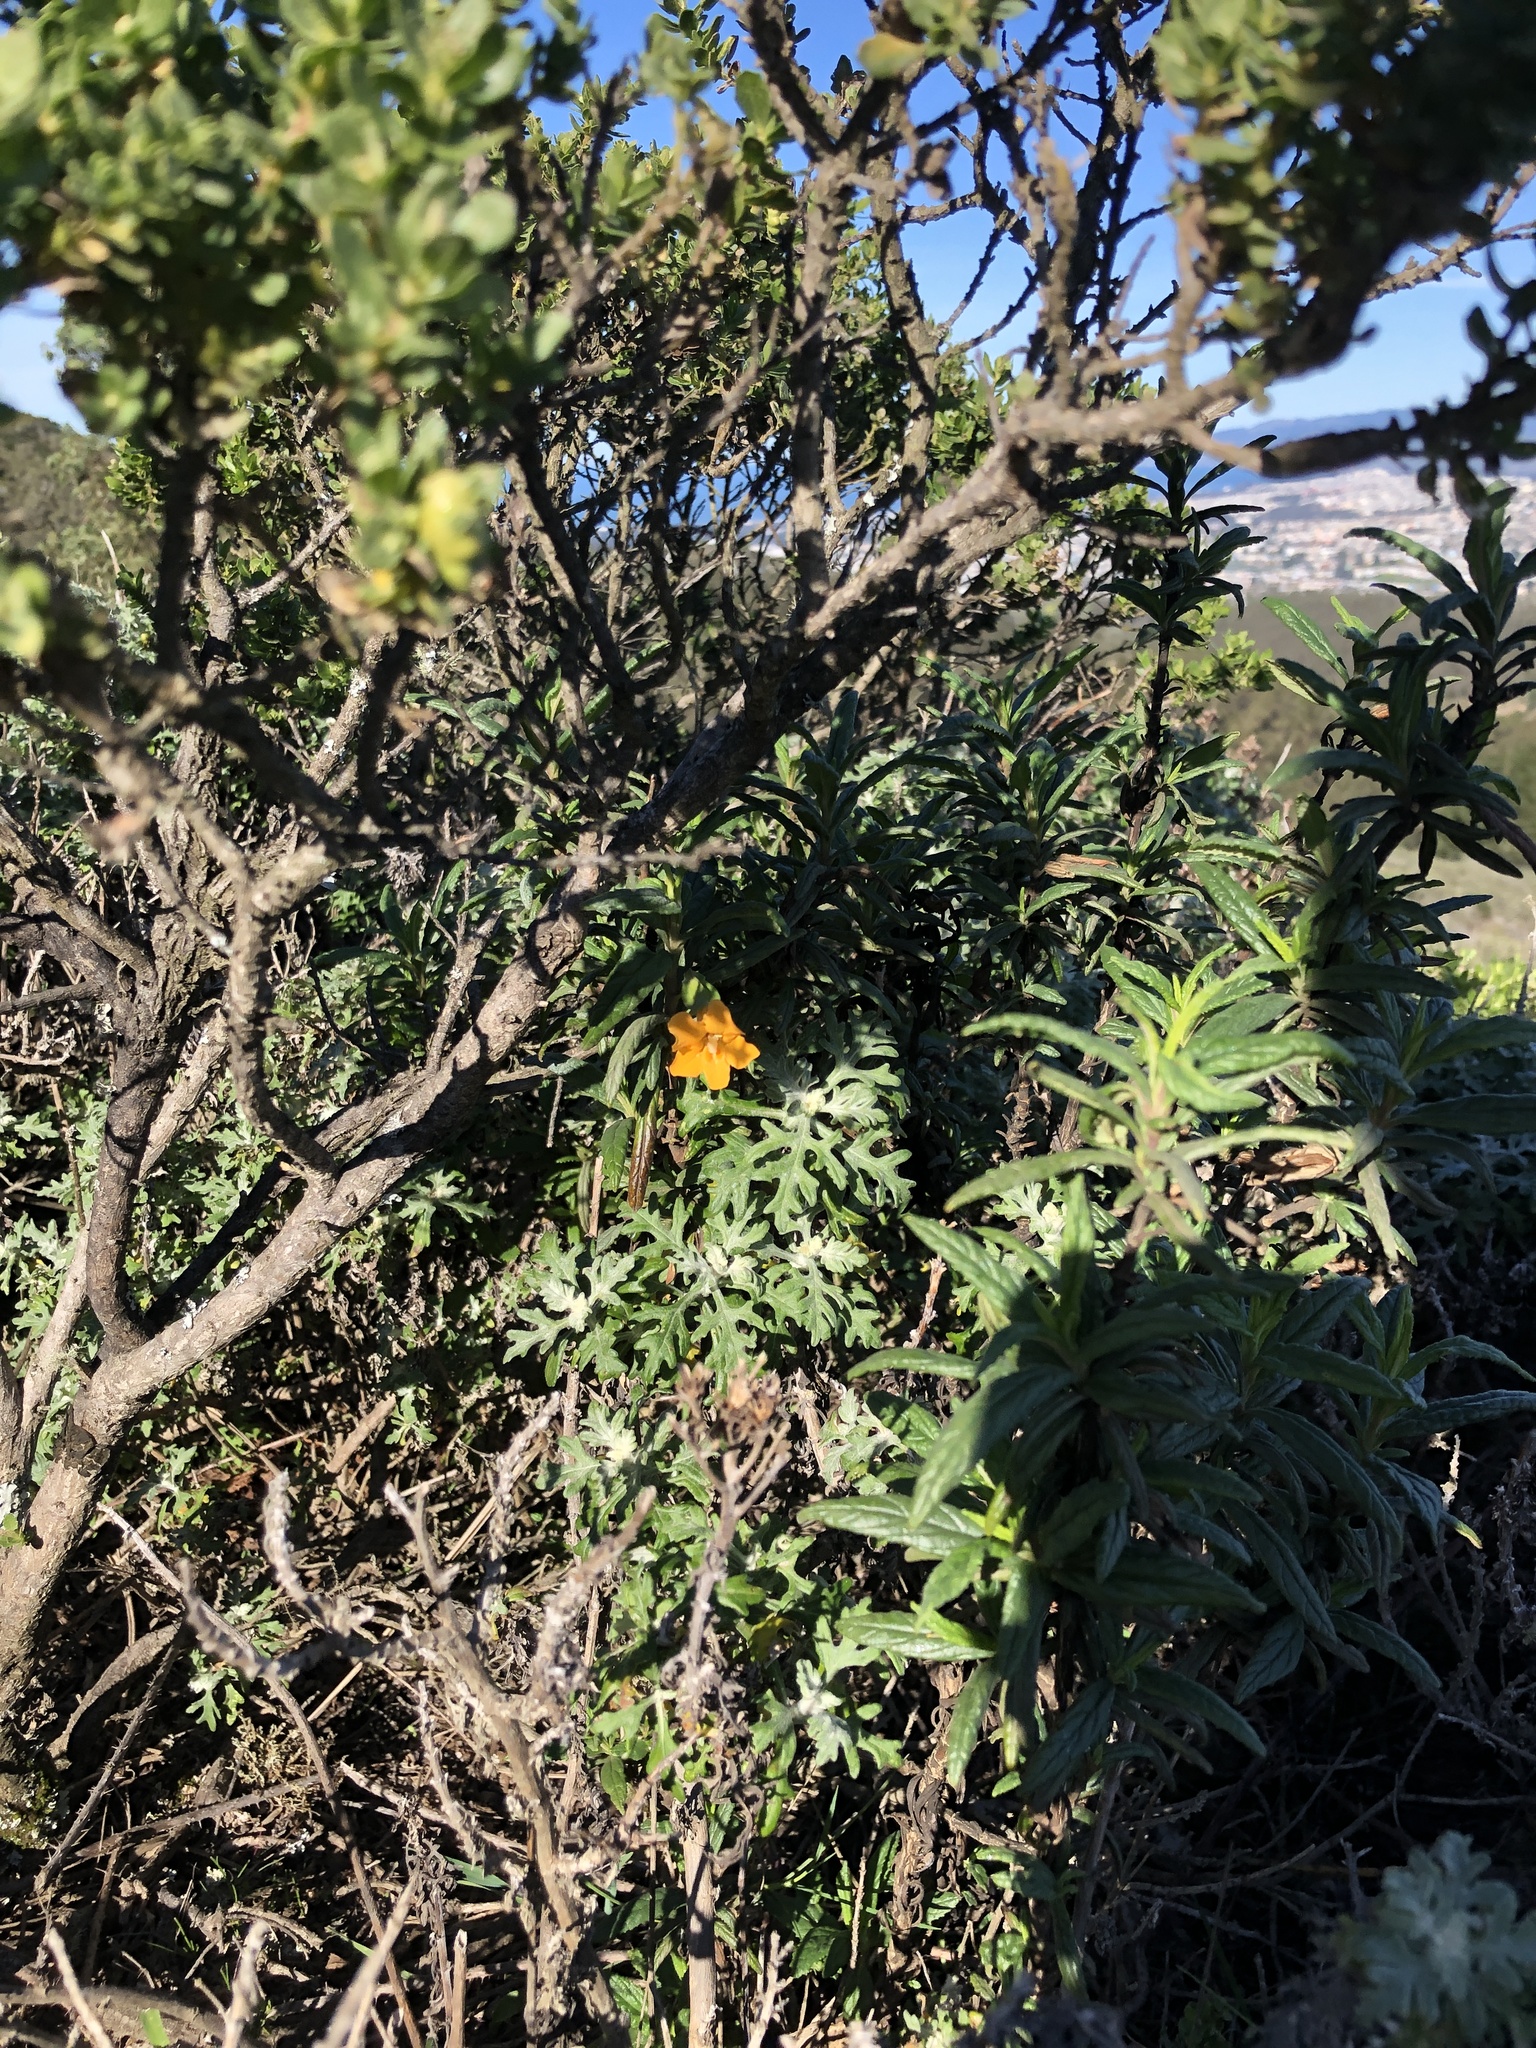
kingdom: Plantae
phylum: Tracheophyta
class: Magnoliopsida
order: Lamiales
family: Phrymaceae
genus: Diplacus
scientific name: Diplacus aurantiacus
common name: Bush monkey-flower
